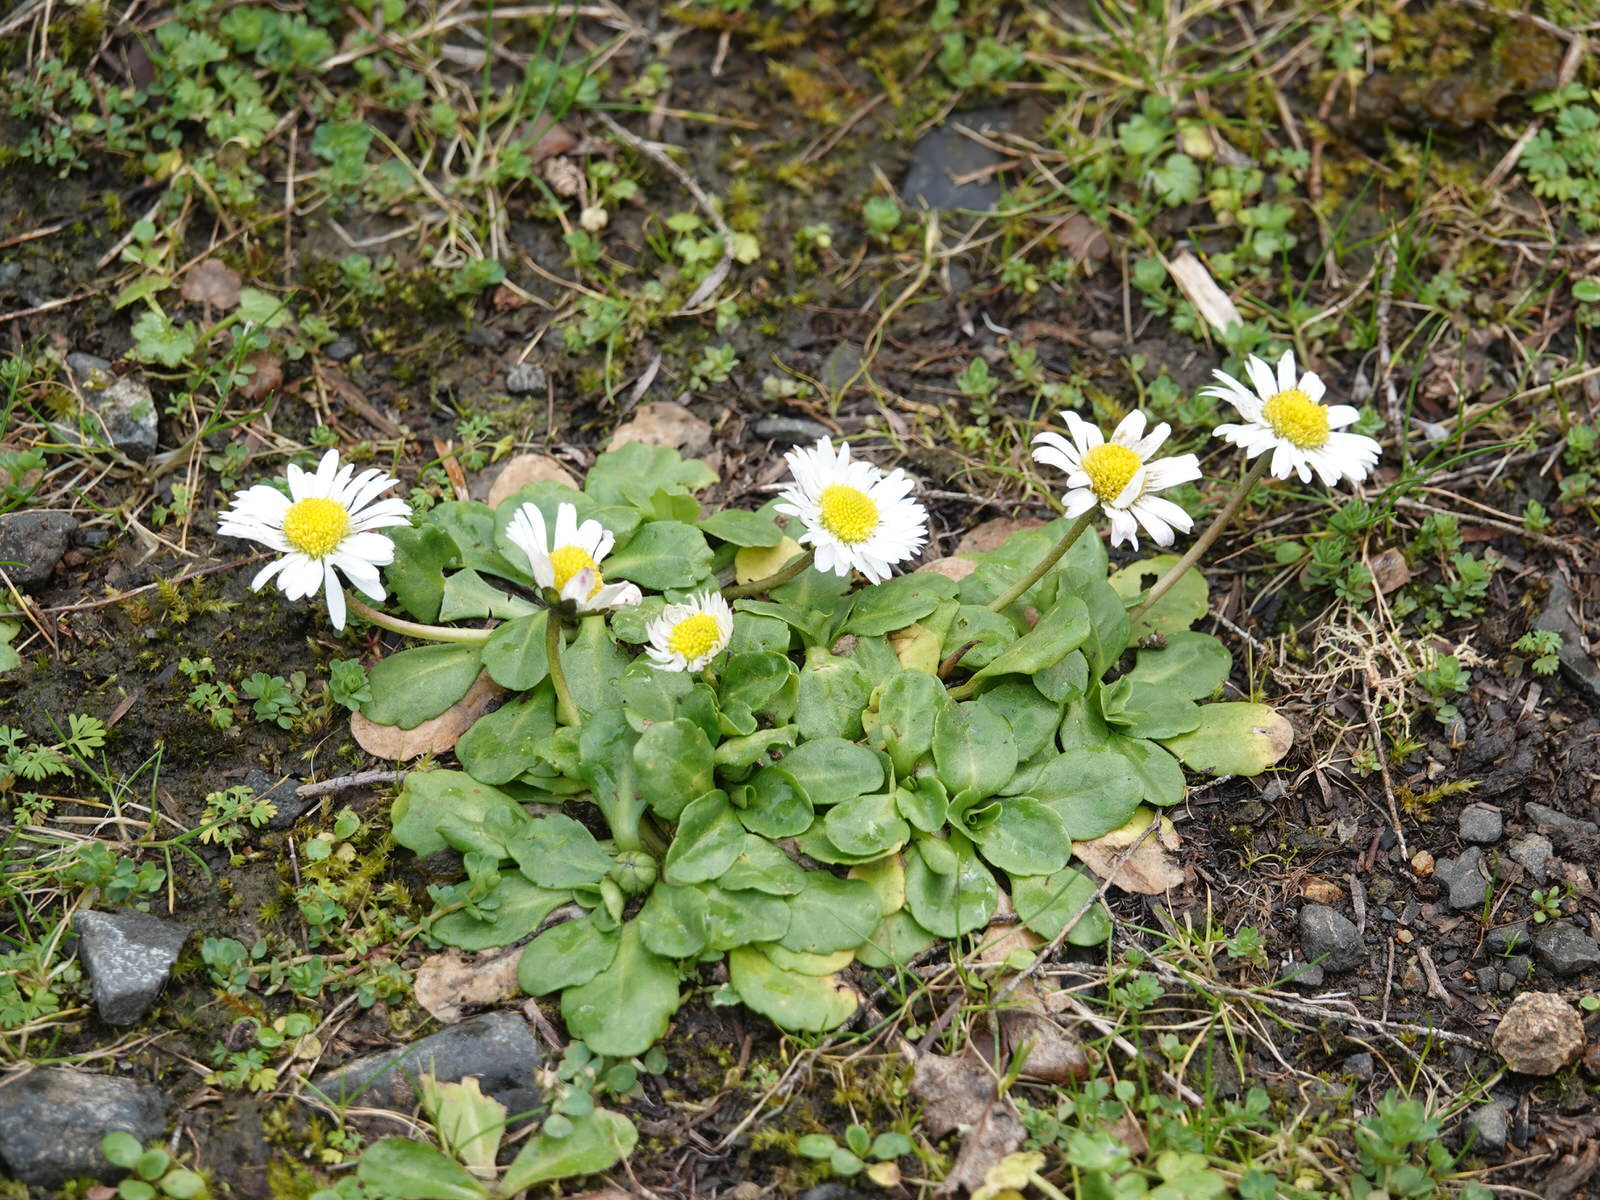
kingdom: Plantae
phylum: Tracheophyta
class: Magnoliopsida
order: Asterales
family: Asteraceae
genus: Bellis
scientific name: Bellis perennis
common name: Lawndaisy
